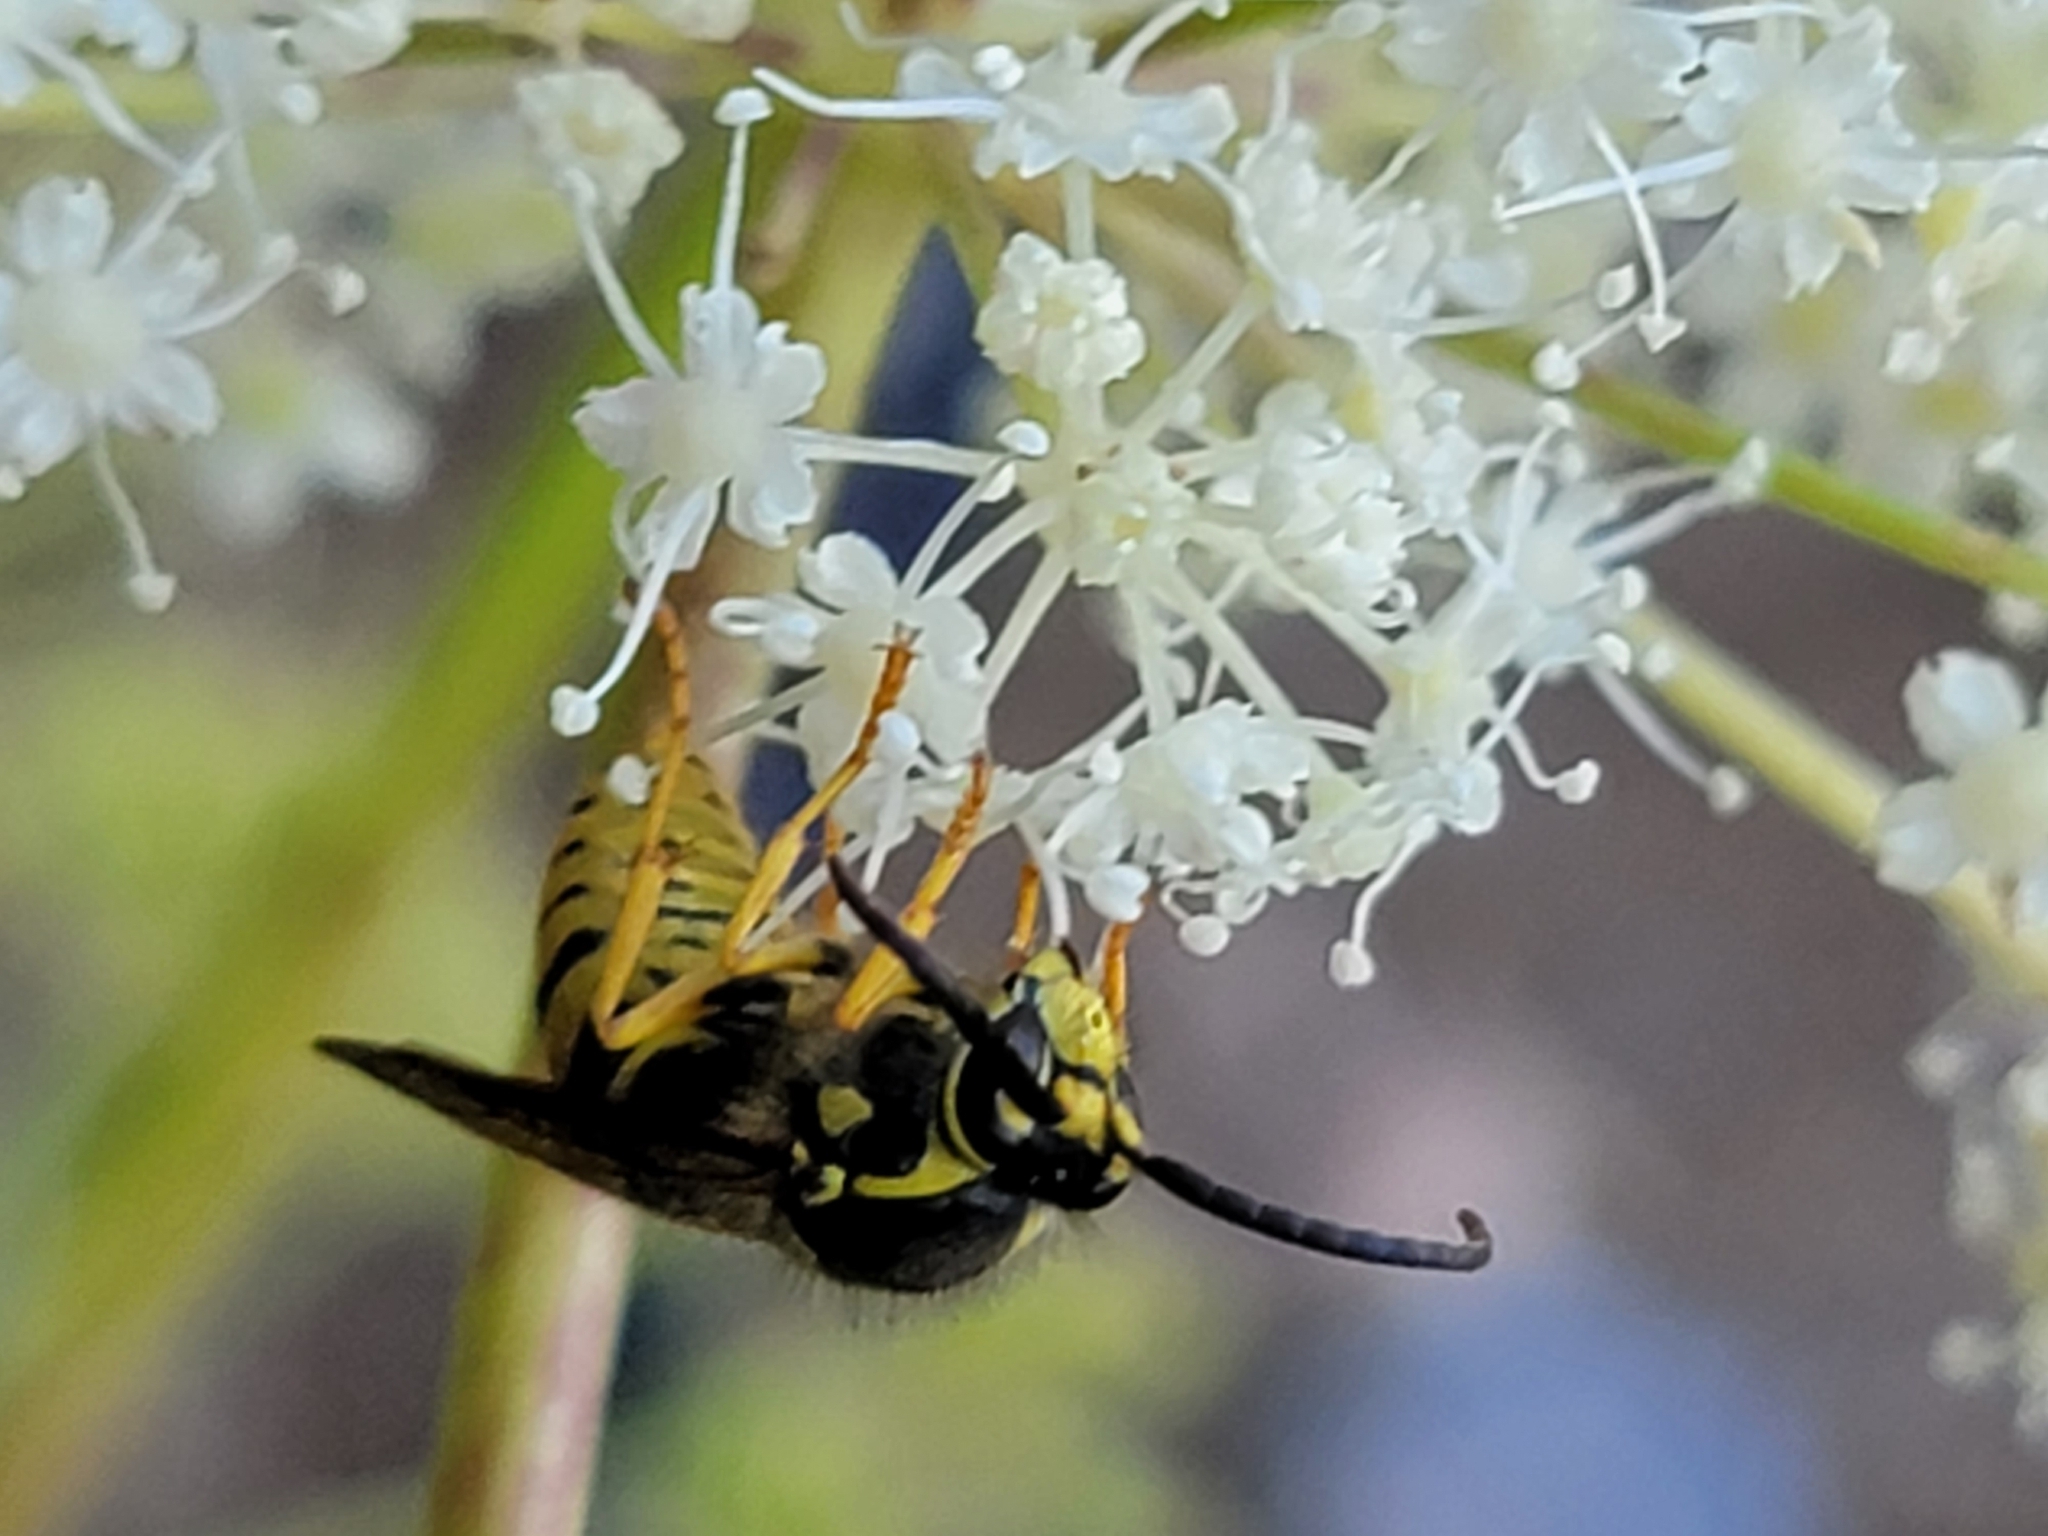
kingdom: Animalia
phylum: Arthropoda
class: Insecta
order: Hymenoptera
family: Vespidae
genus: Dolichovespula
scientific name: Dolichovespula arenaria
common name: Aerial yellowjacket
